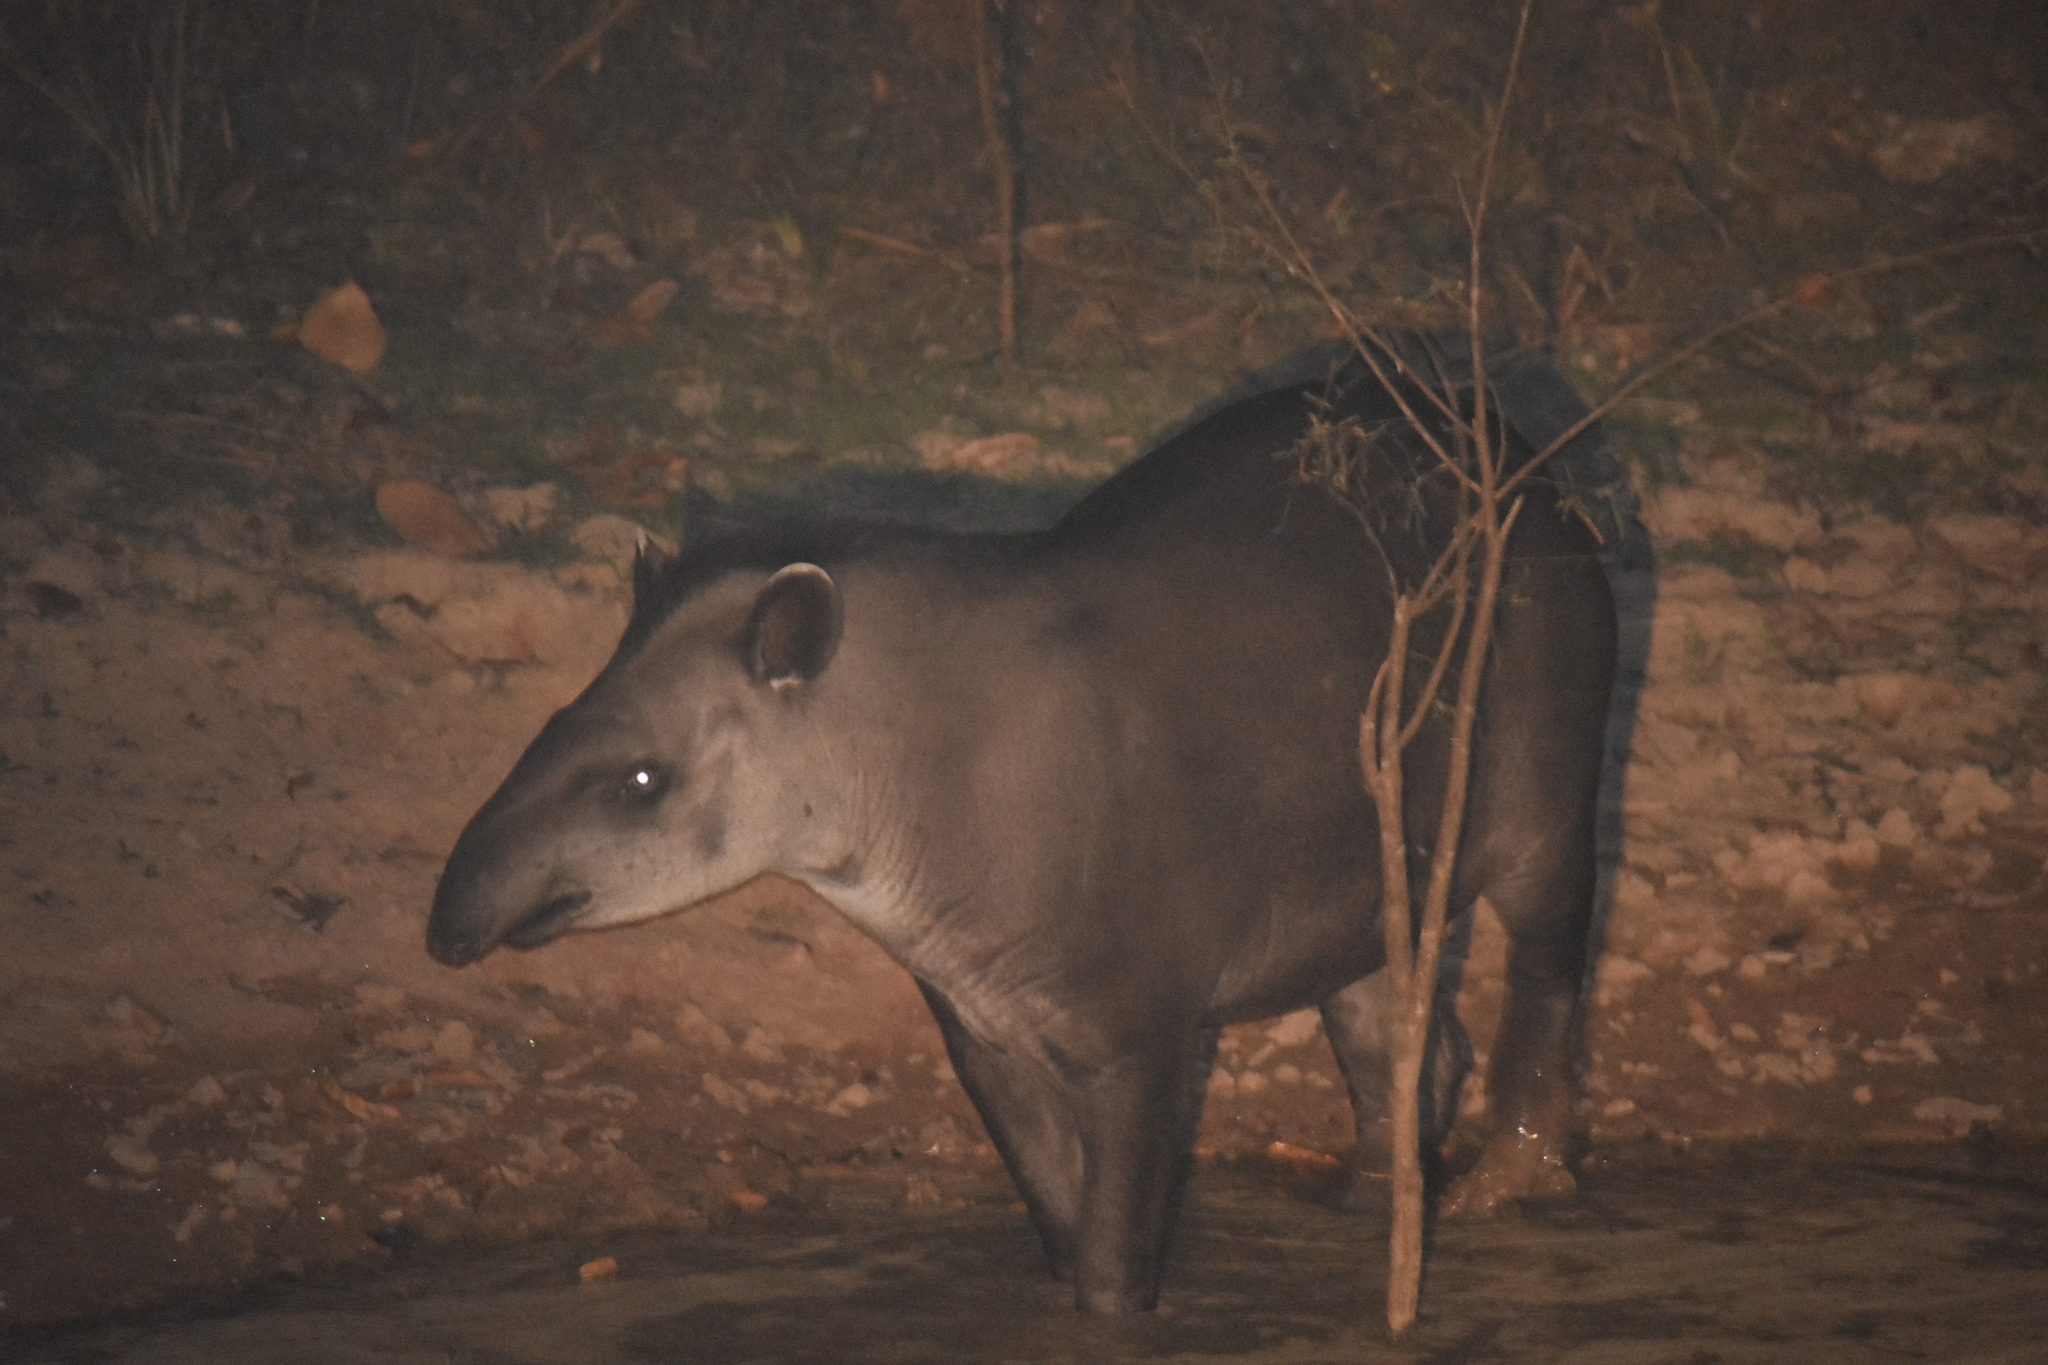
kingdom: Animalia
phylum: Chordata
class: Mammalia
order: Perissodactyla
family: Tapiridae
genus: Tapirus
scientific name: Tapirus terrestris
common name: Brazilian tapir
